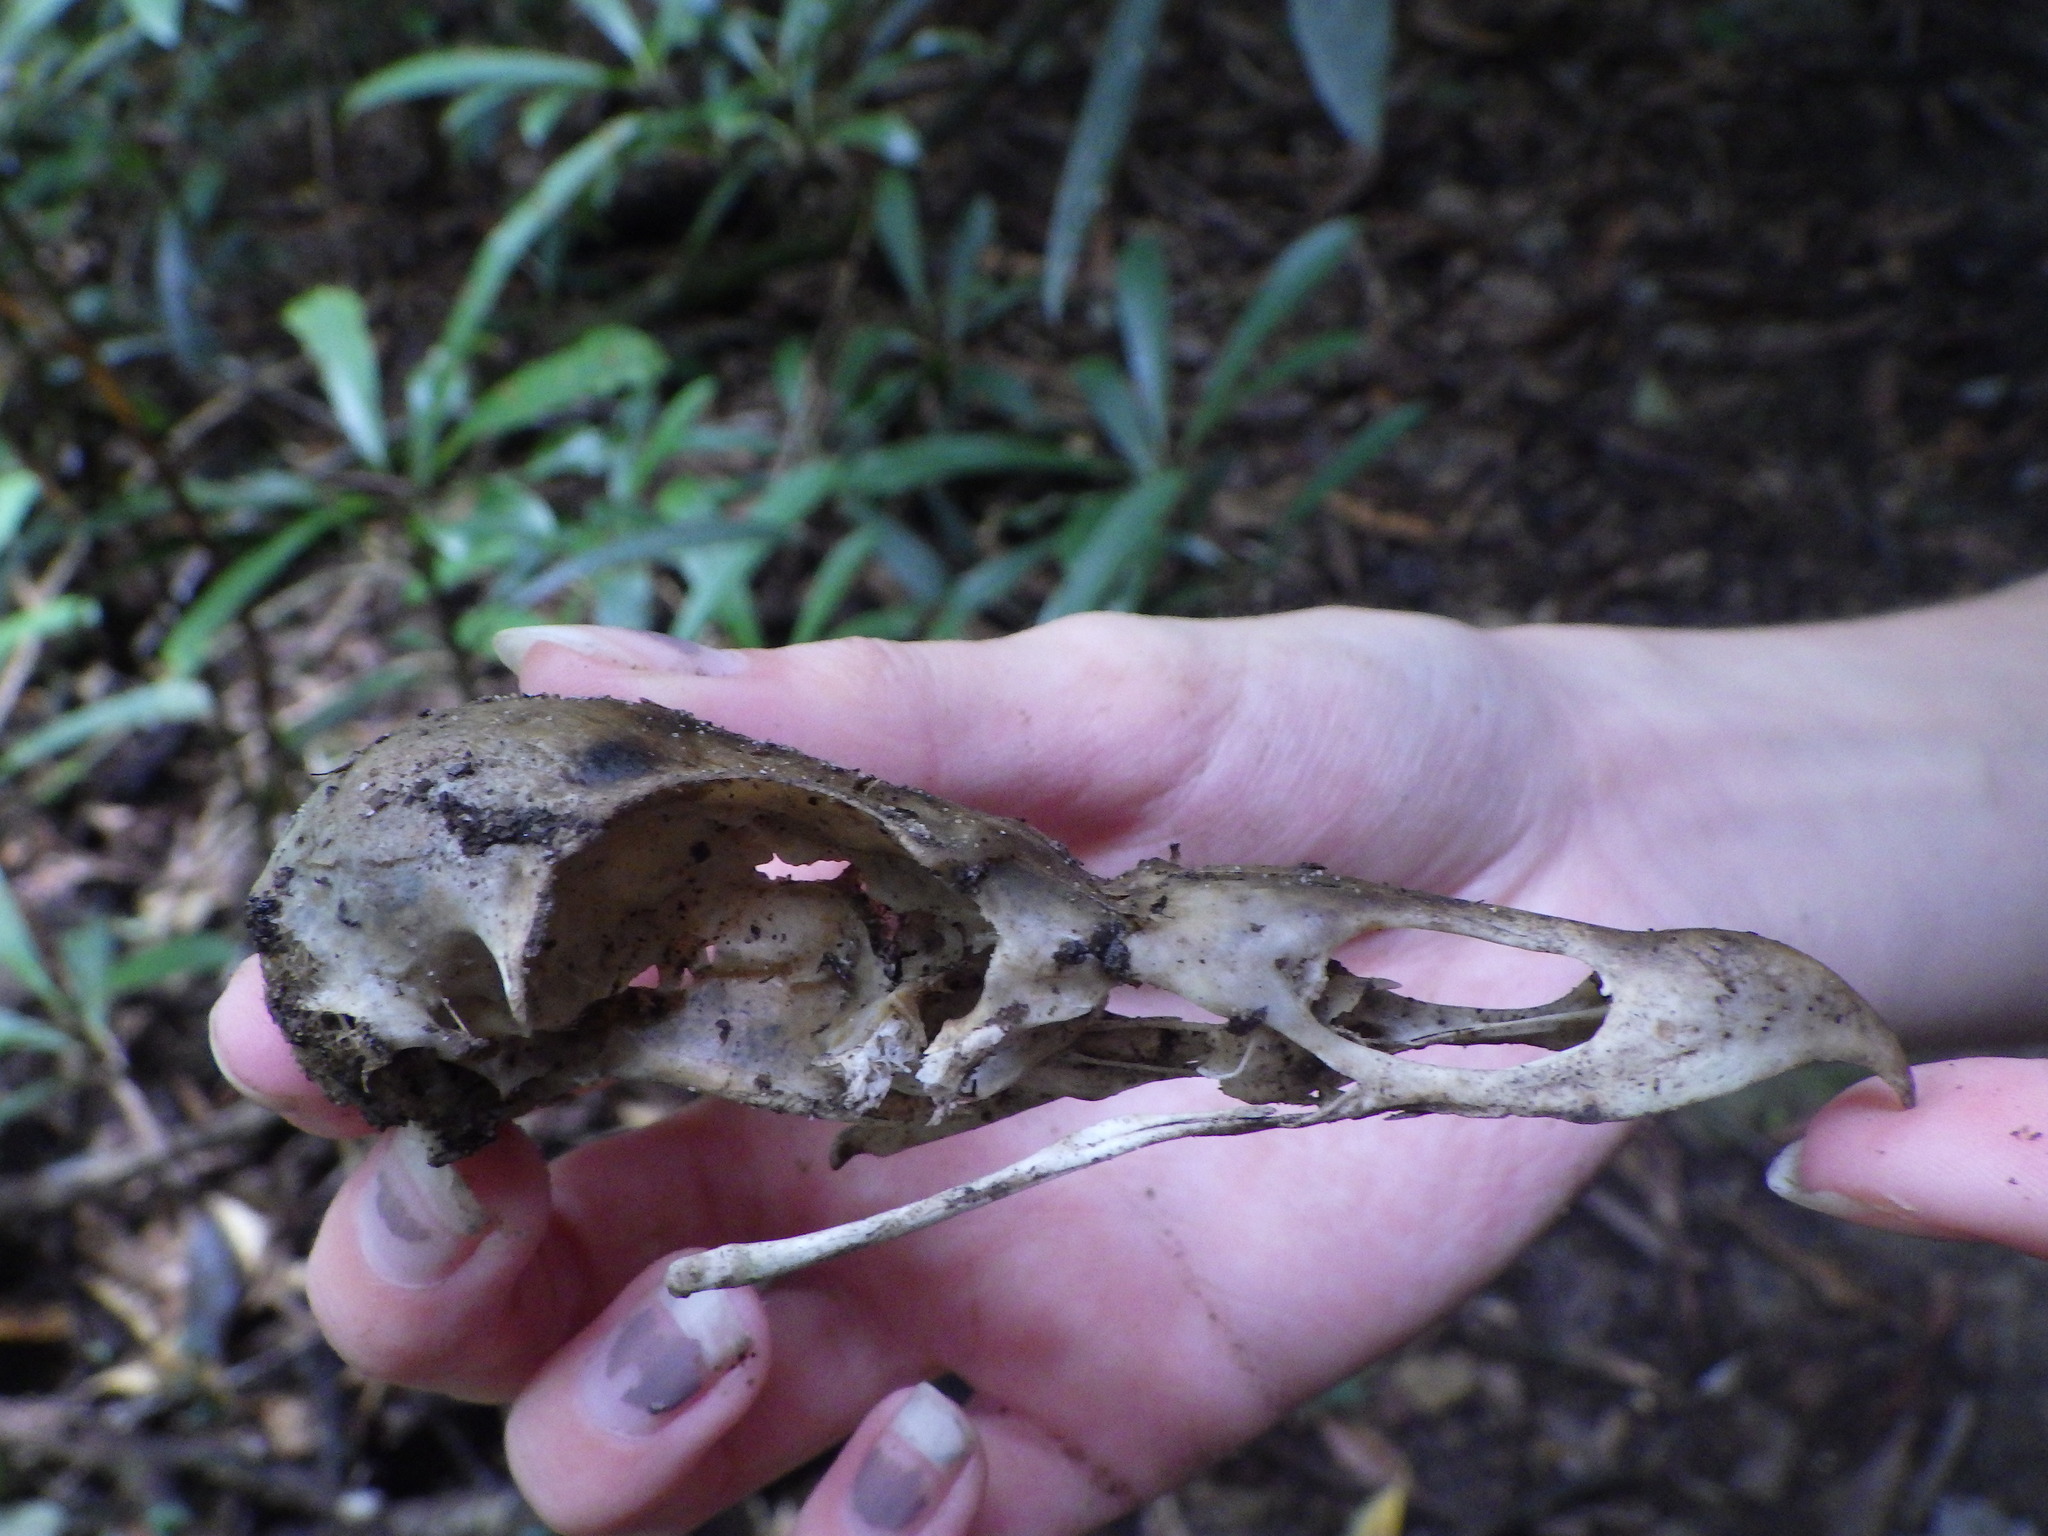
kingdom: Animalia
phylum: Chordata
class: Aves
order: Accipitriformes
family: Cathartidae
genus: Cathartes
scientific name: Cathartes aura
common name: Turkey vulture
